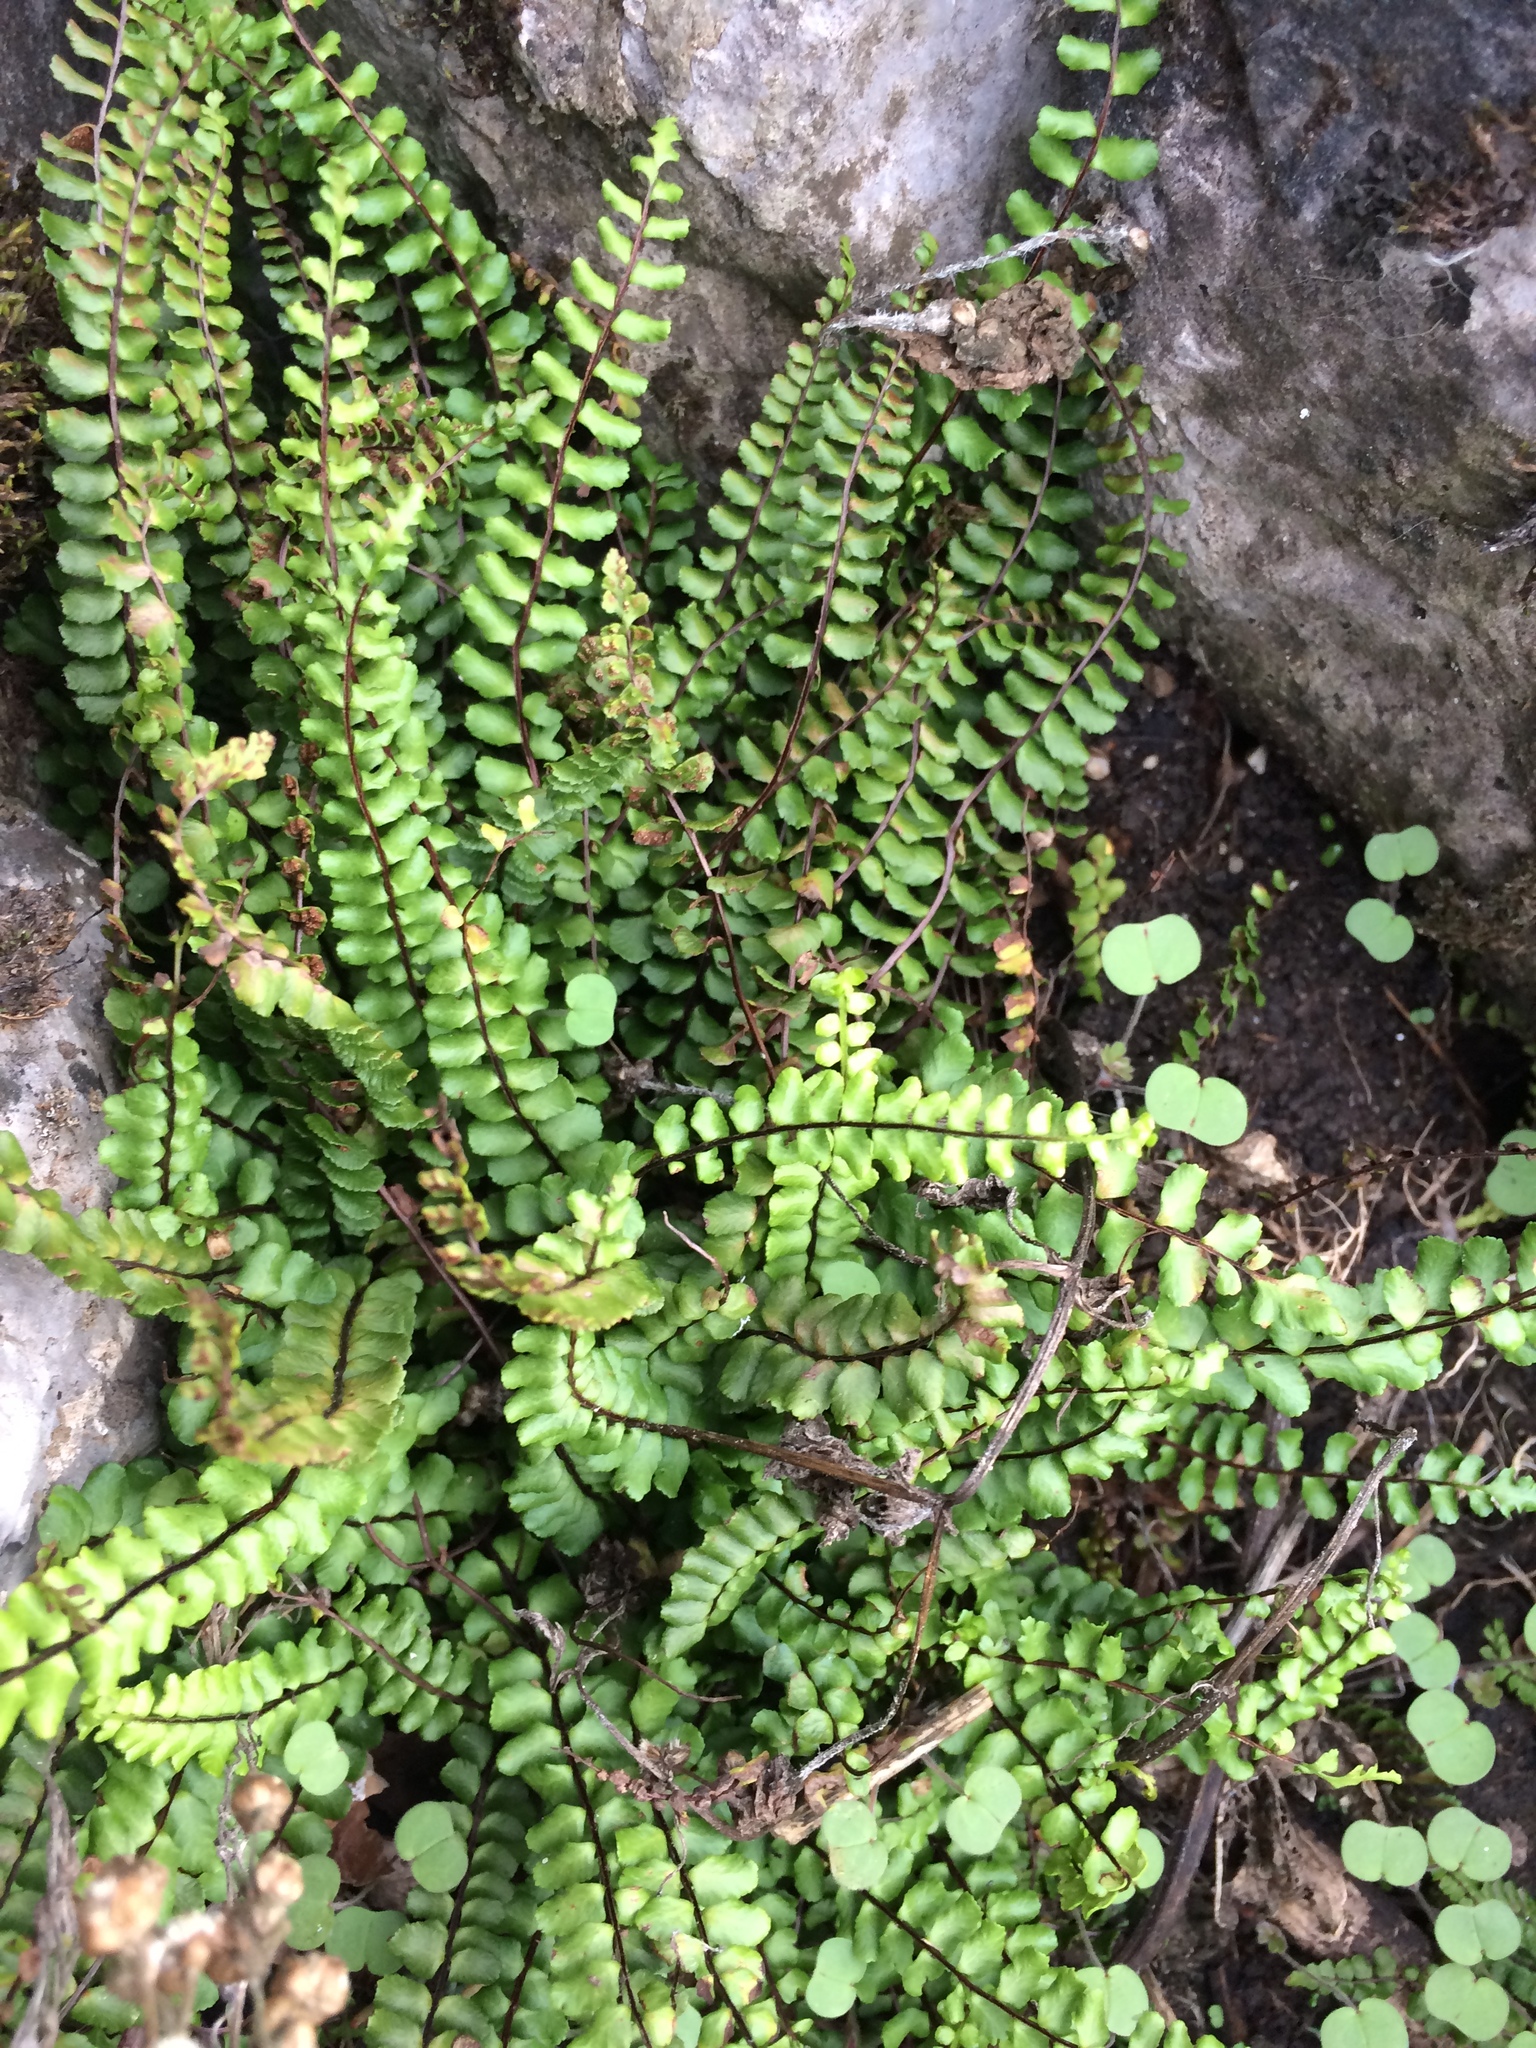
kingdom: Plantae
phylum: Tracheophyta
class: Polypodiopsida
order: Polypodiales
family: Aspleniaceae
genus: Asplenium
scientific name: Asplenium trichomanes
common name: Maidenhair spleenwort
